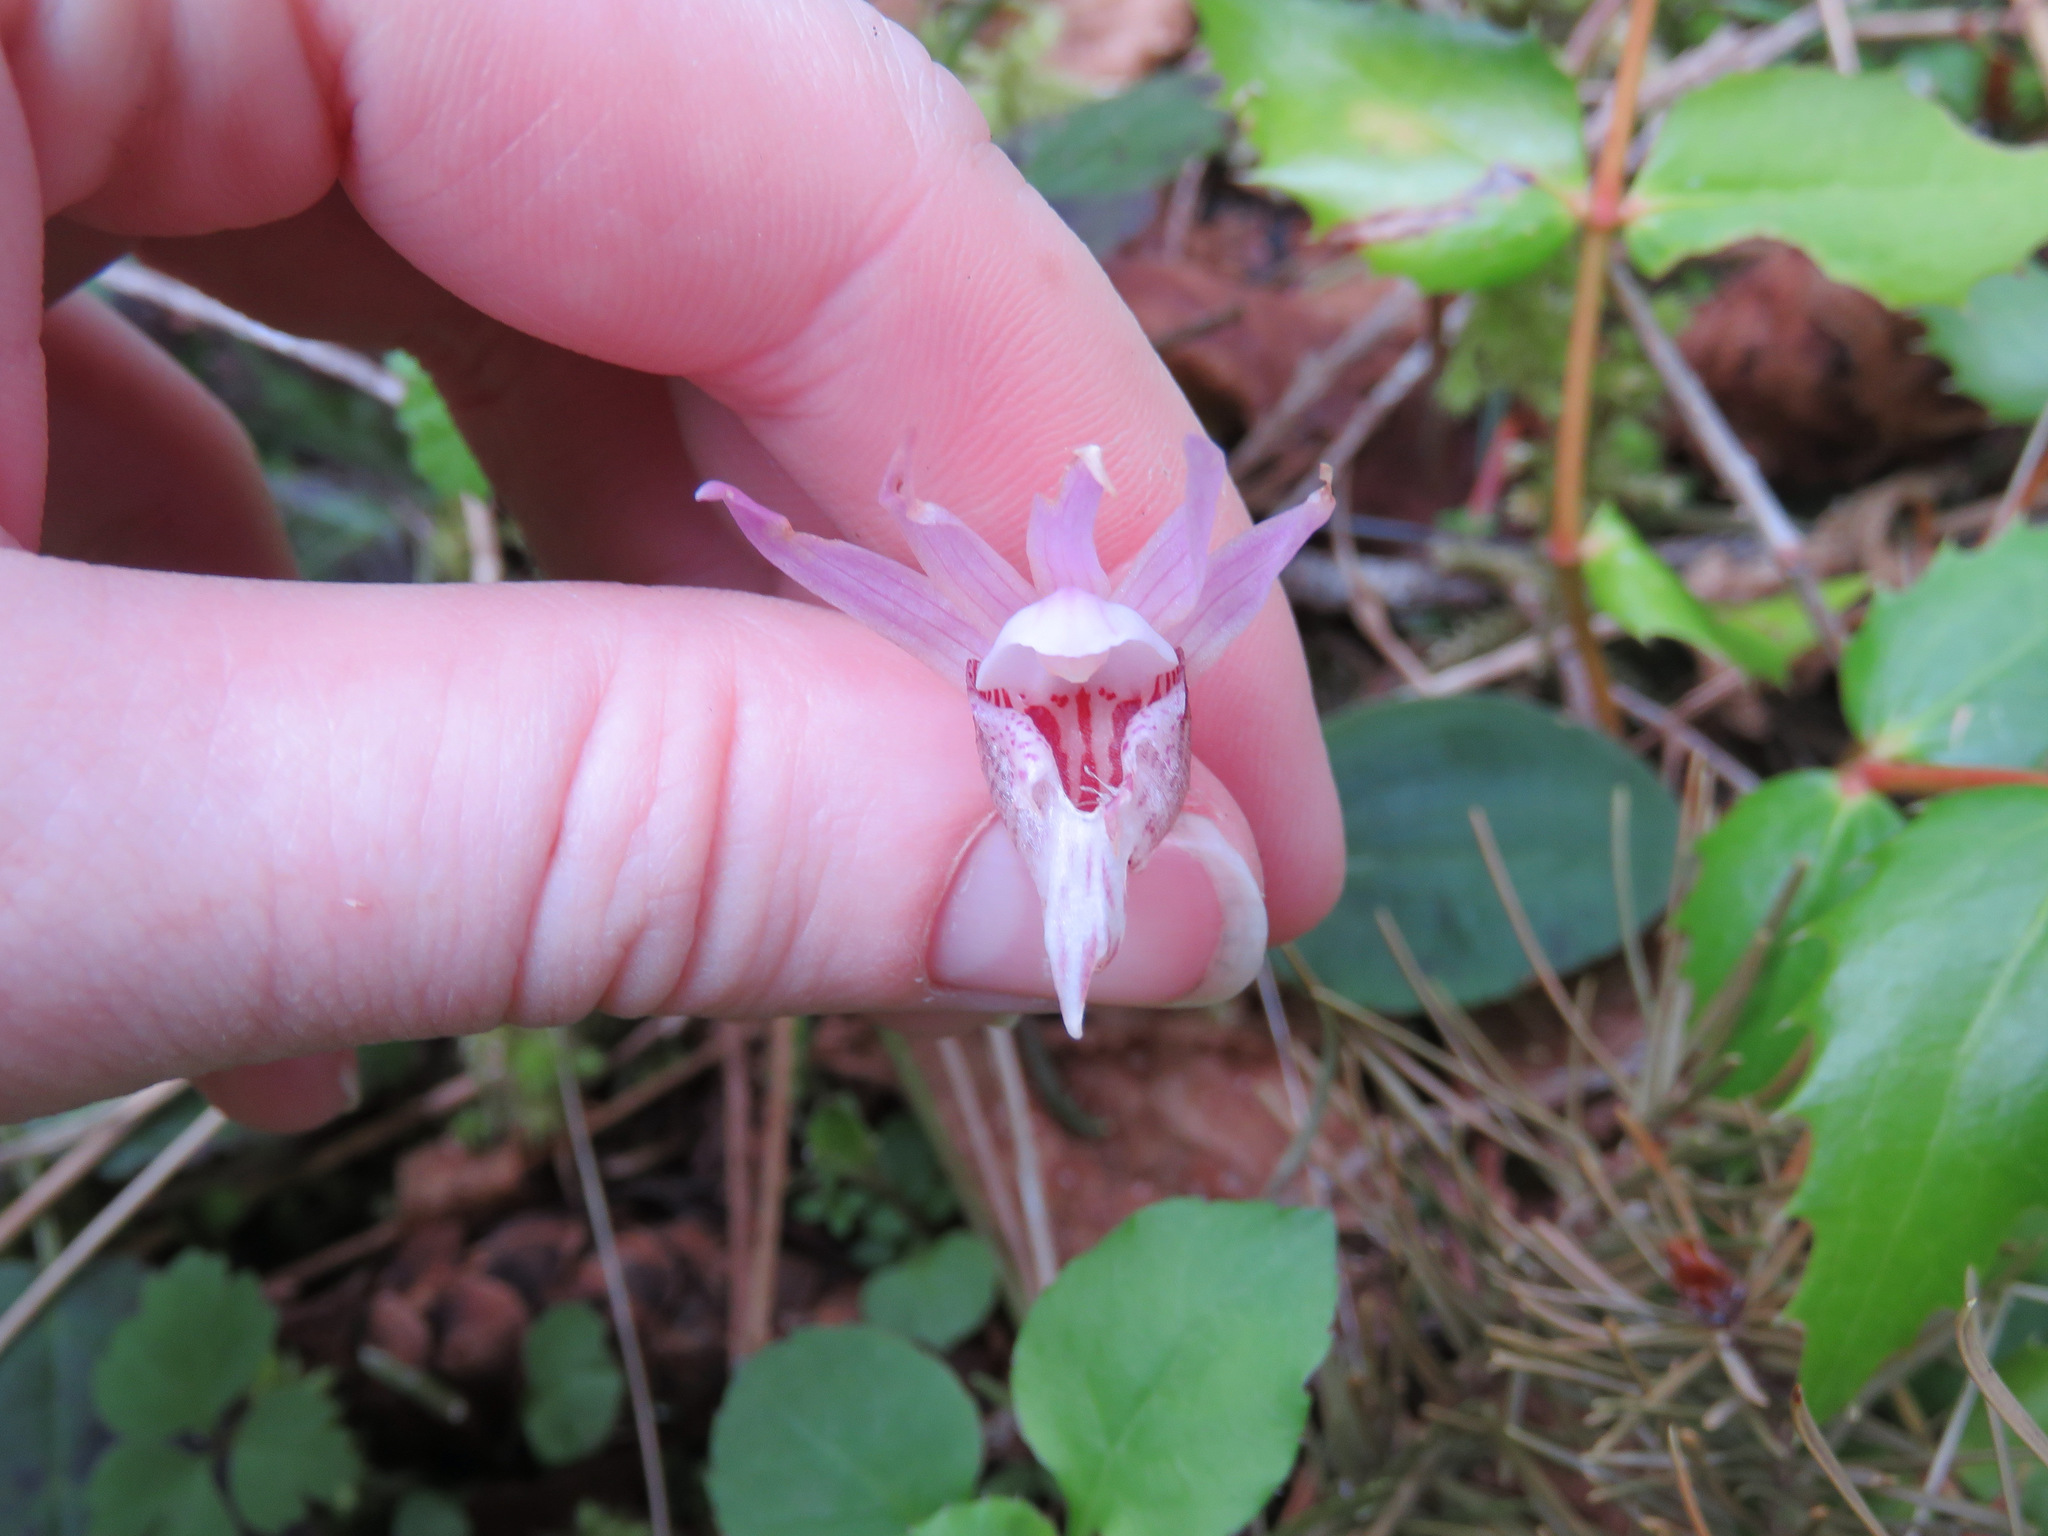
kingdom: Plantae
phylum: Tracheophyta
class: Liliopsida
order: Asparagales
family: Orchidaceae
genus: Calypso
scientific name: Calypso bulbosa
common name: Calypso
